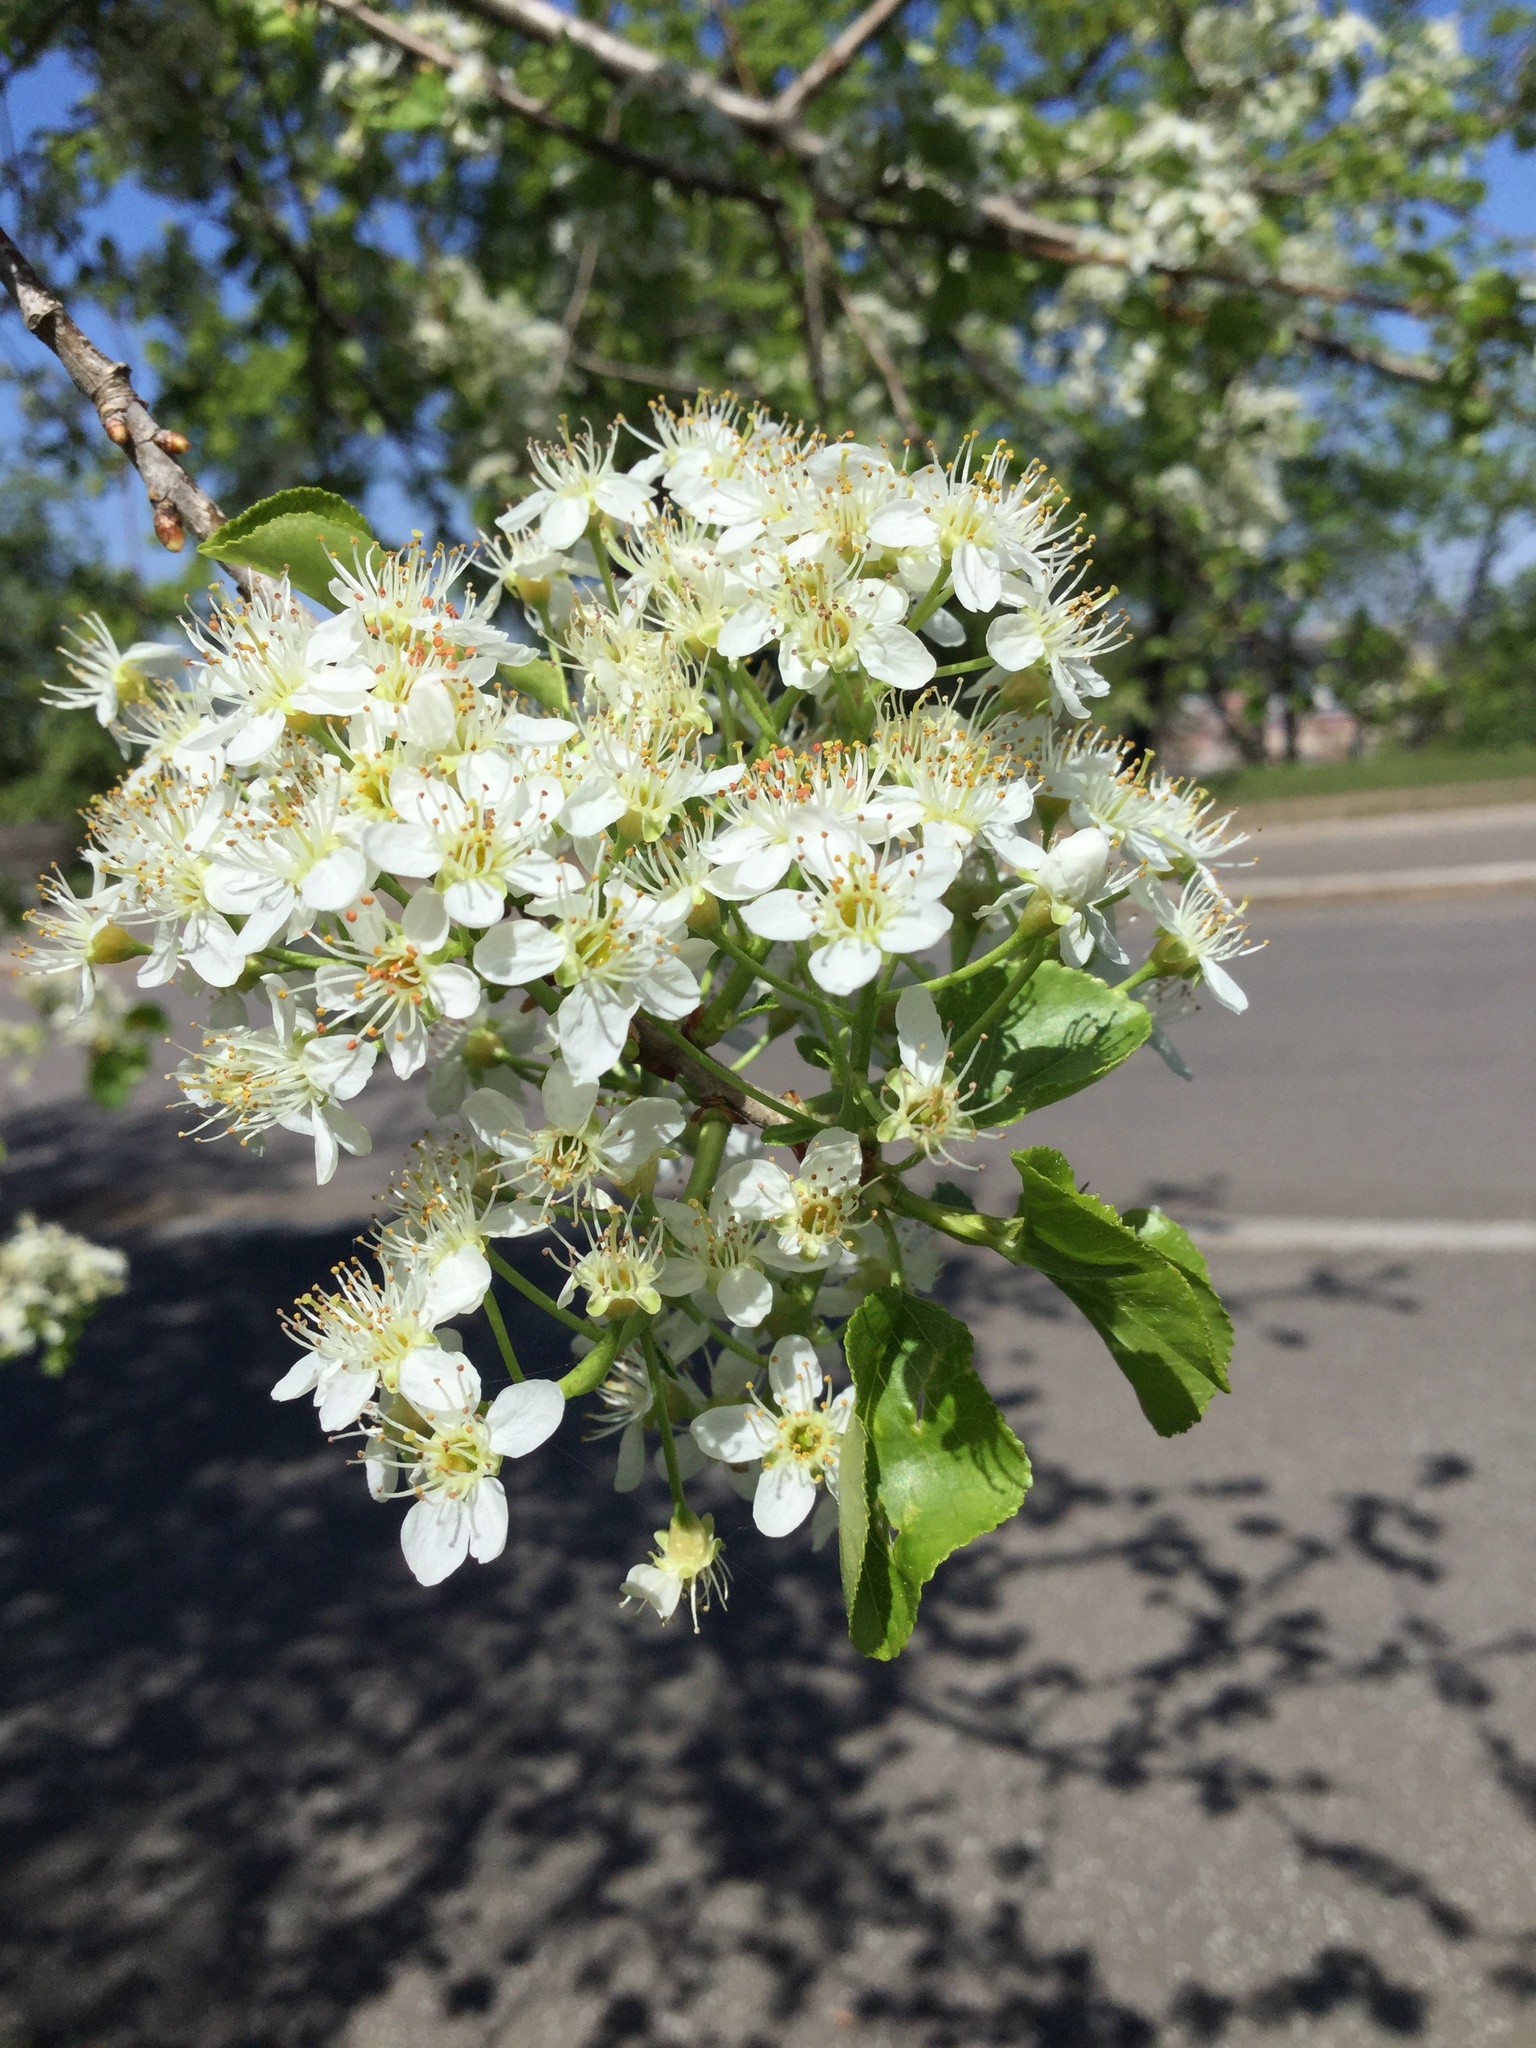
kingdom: Plantae
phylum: Tracheophyta
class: Magnoliopsida
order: Rosales
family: Rosaceae
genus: Prunus
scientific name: Prunus mahaleb
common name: Mahaleb cherry
